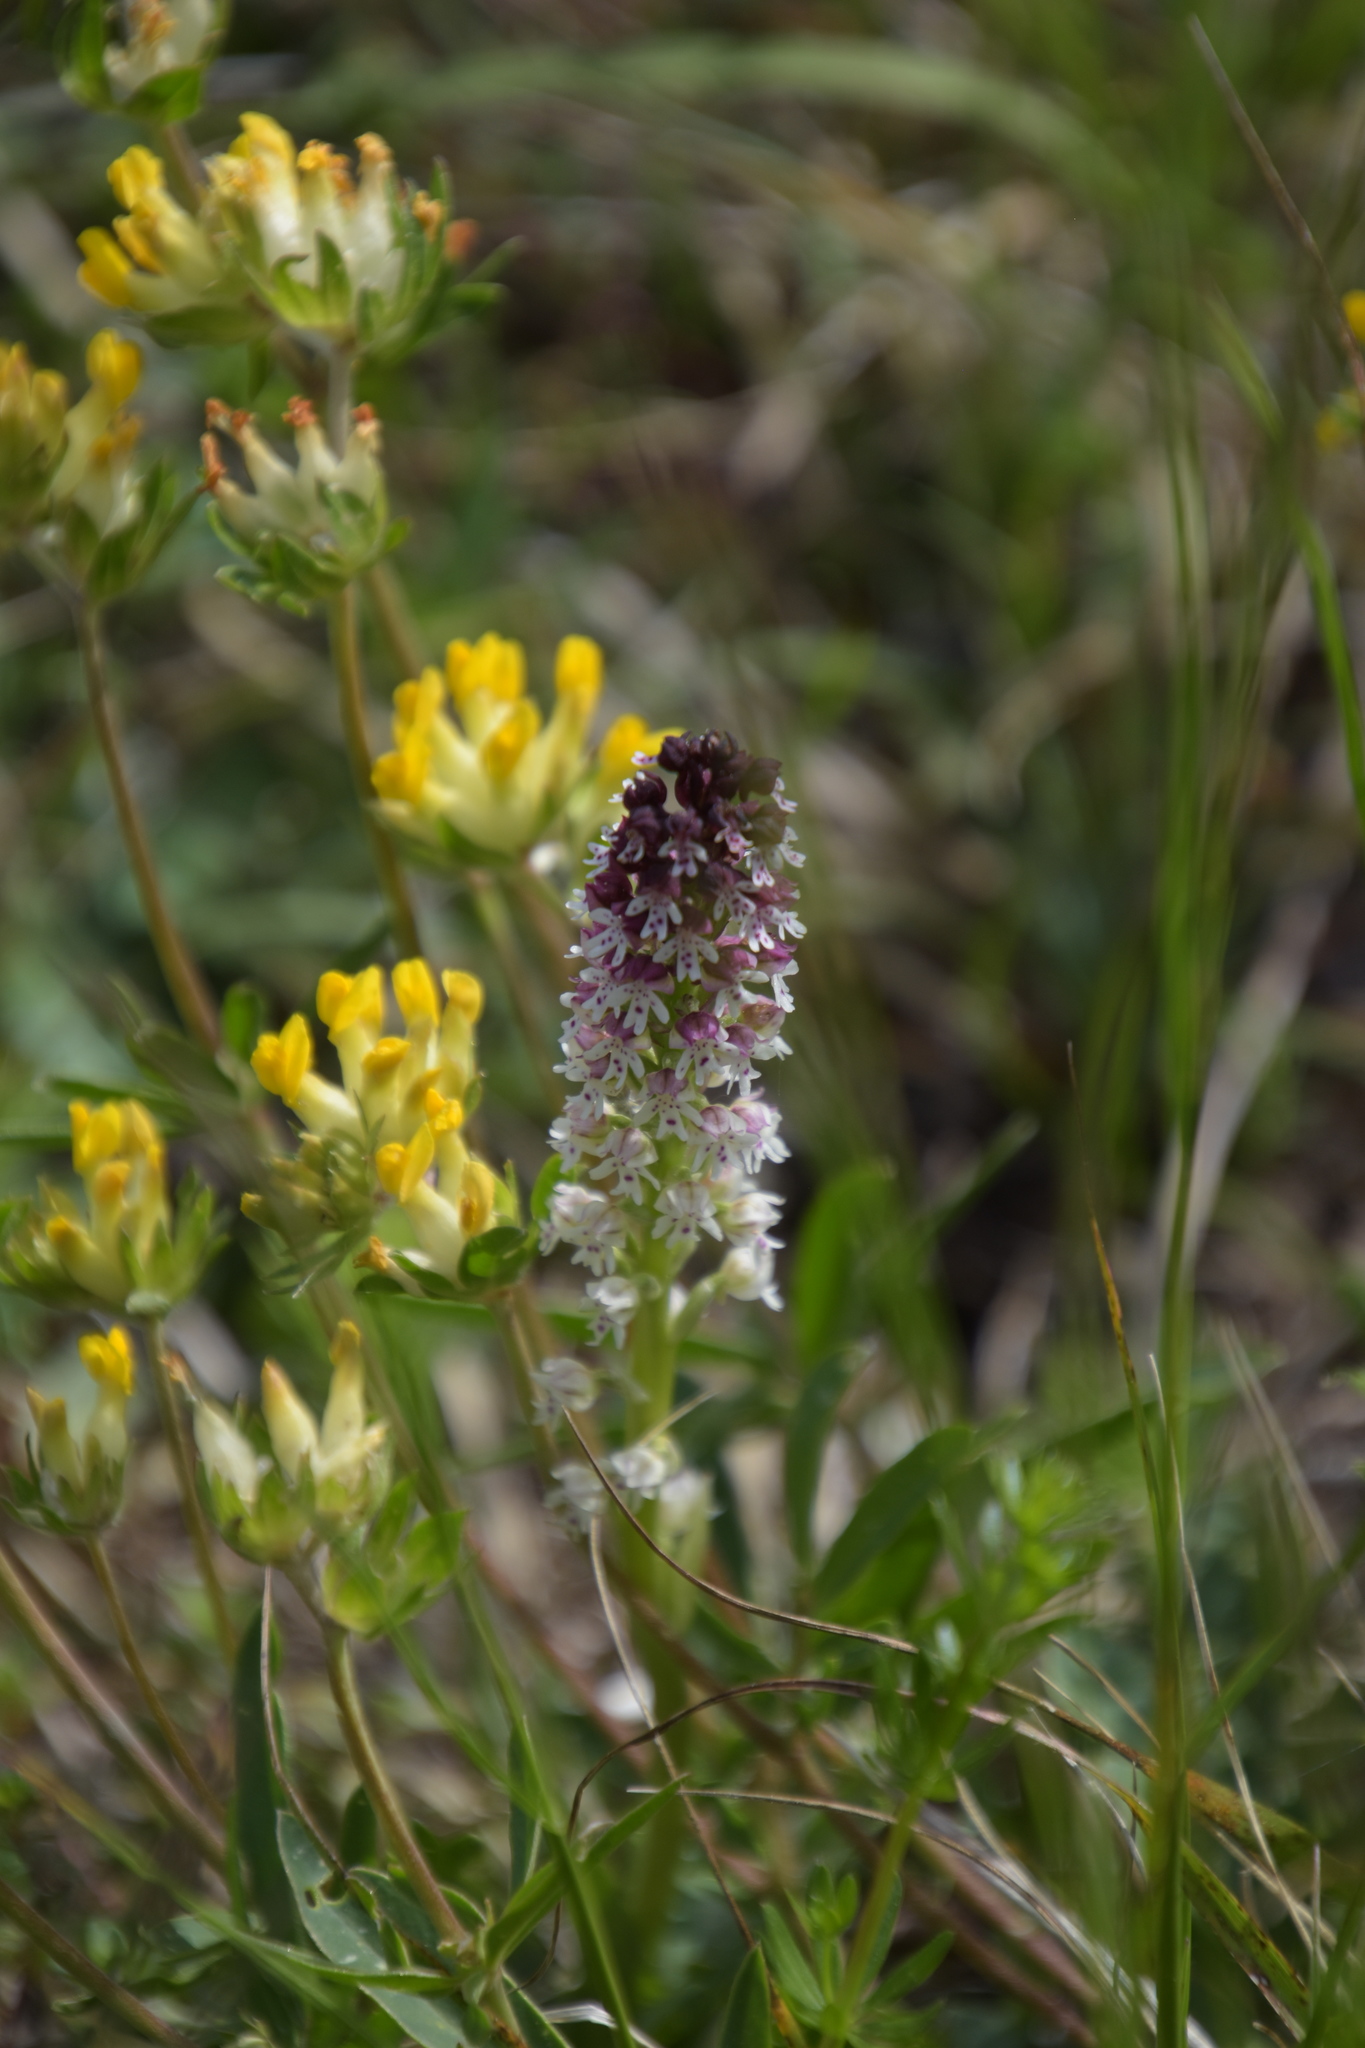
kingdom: Plantae
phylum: Tracheophyta
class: Liliopsida
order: Asparagales
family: Orchidaceae
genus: Neotinea
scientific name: Neotinea ustulata
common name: Burnt orchid
